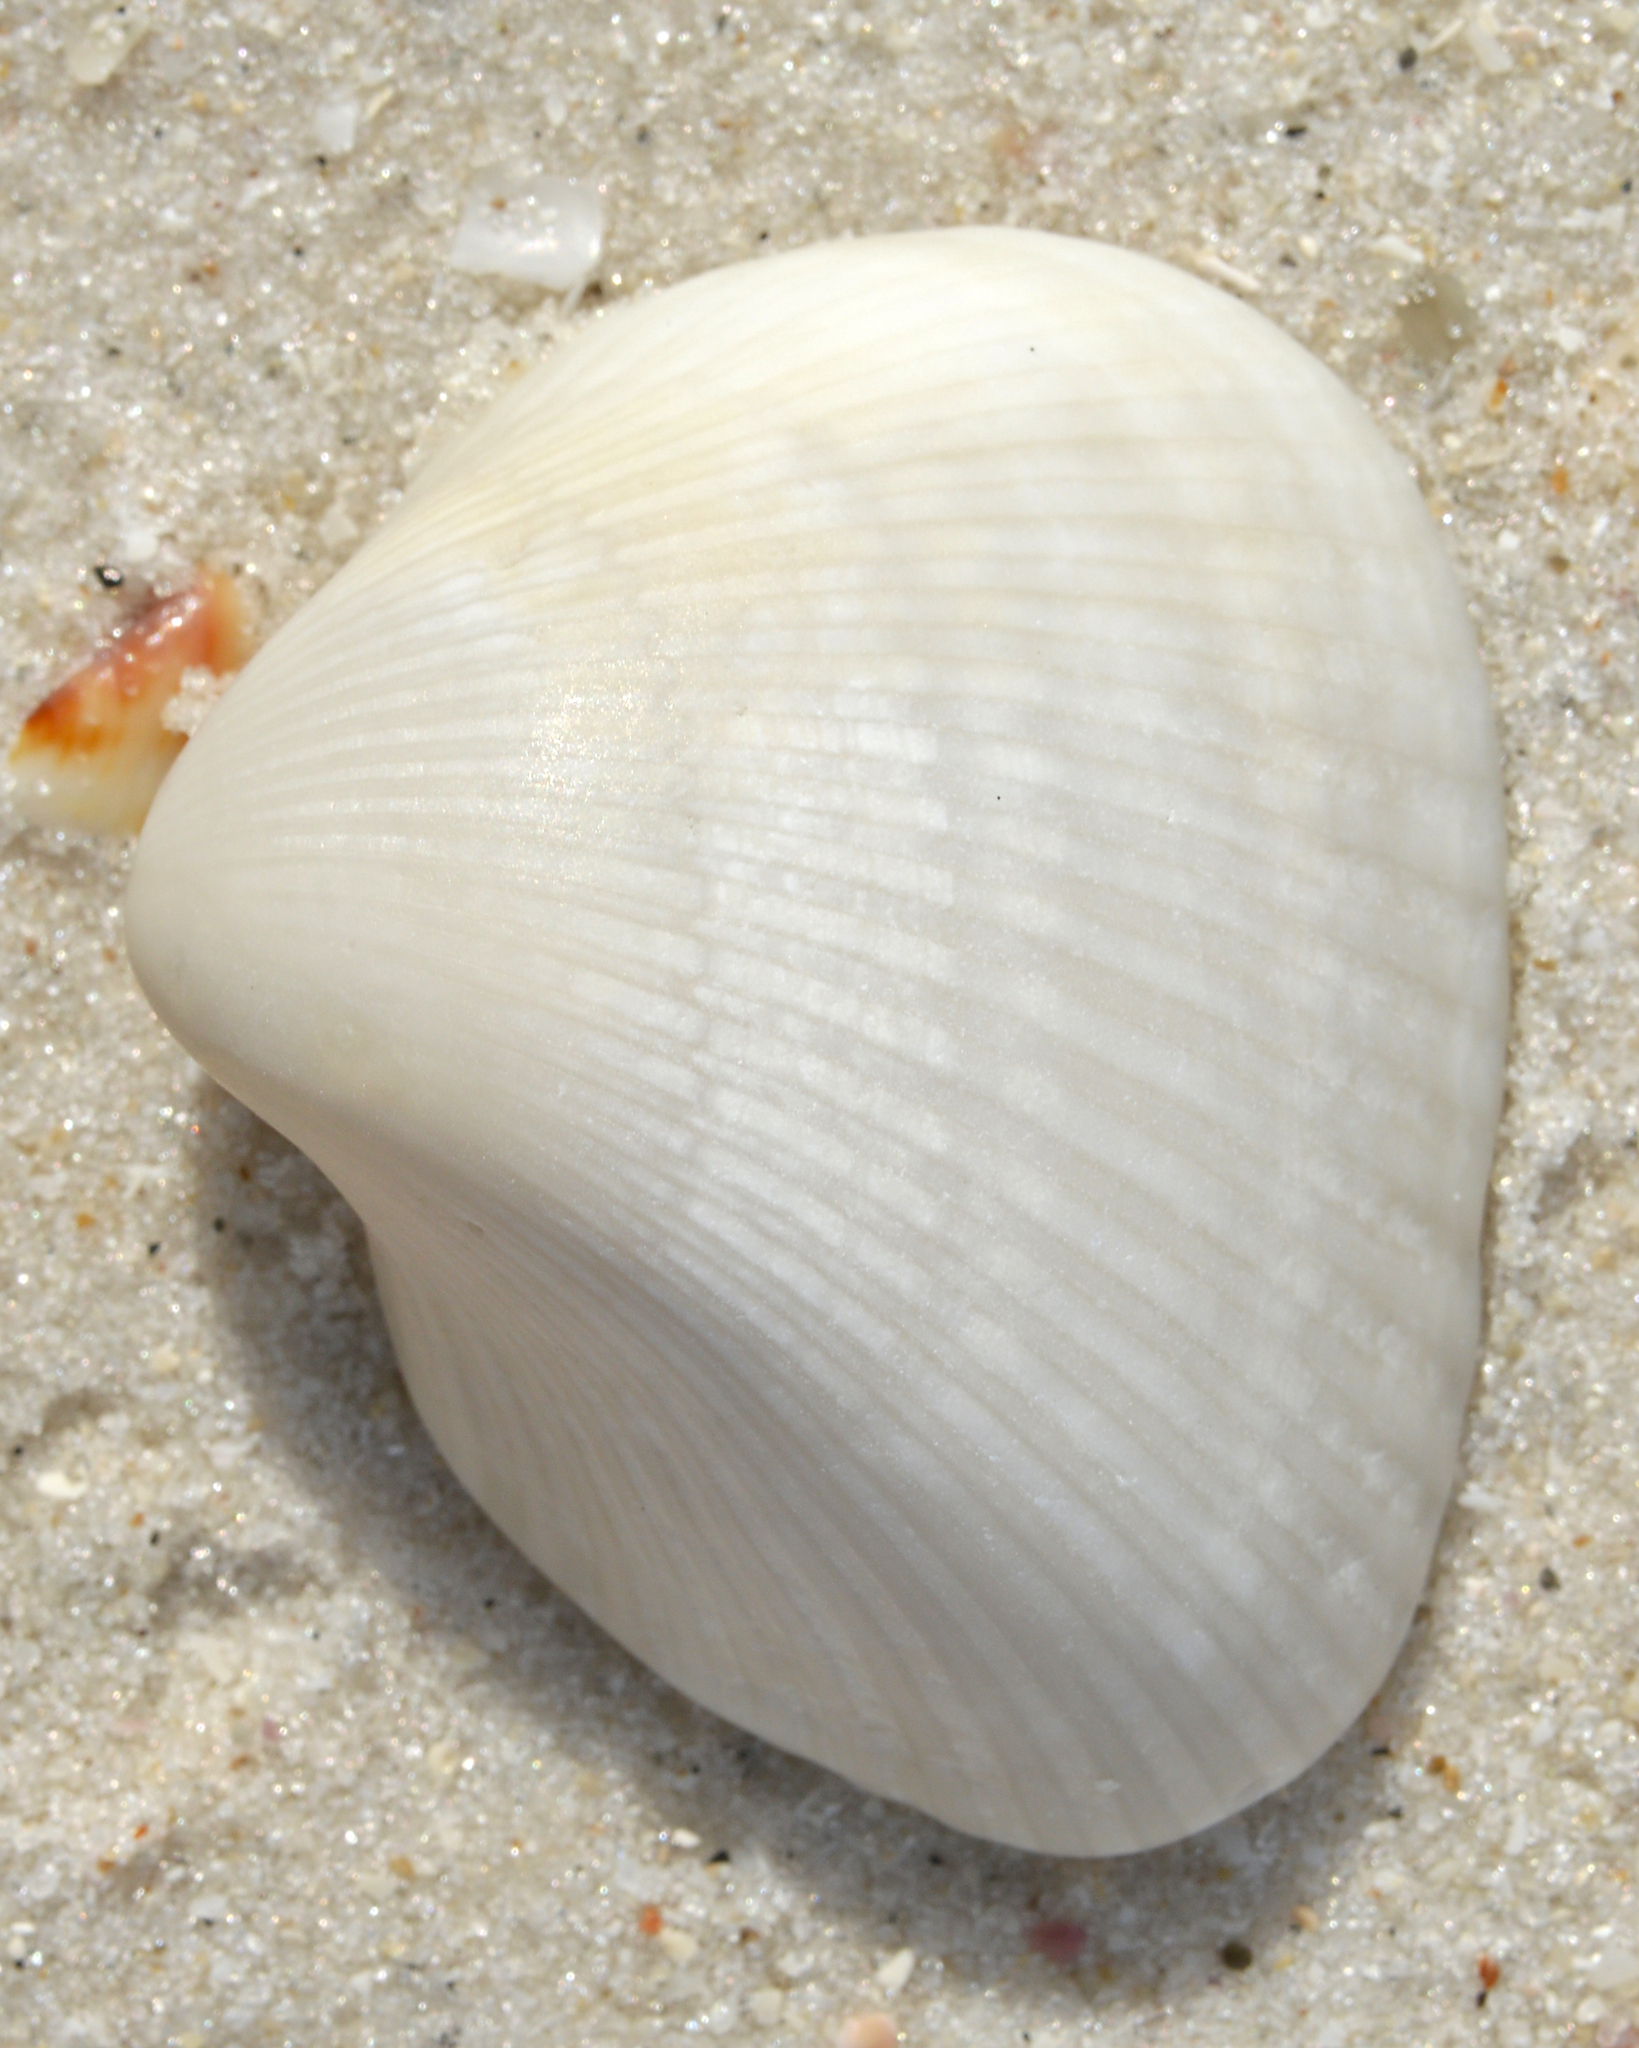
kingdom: Animalia
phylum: Mollusca
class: Bivalvia
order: Arcida
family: Noetiidae
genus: Noetia
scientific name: Noetia ponderosa
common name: Ponderous ark
